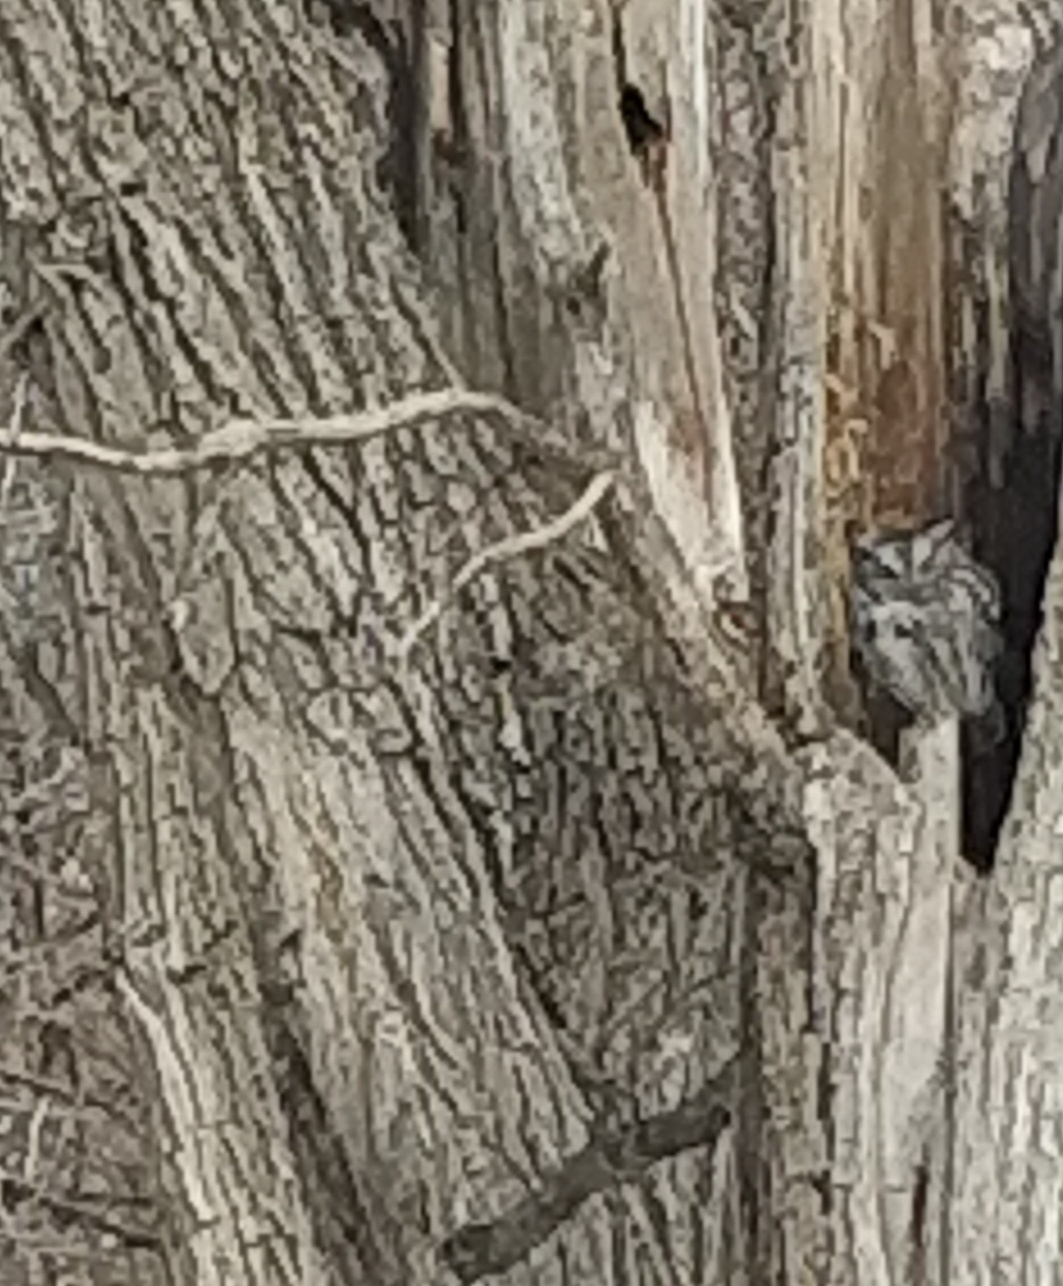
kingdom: Animalia
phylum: Chordata
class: Aves
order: Strigiformes
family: Strigidae
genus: Megascops
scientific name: Megascops asio
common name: Eastern screech-owl
